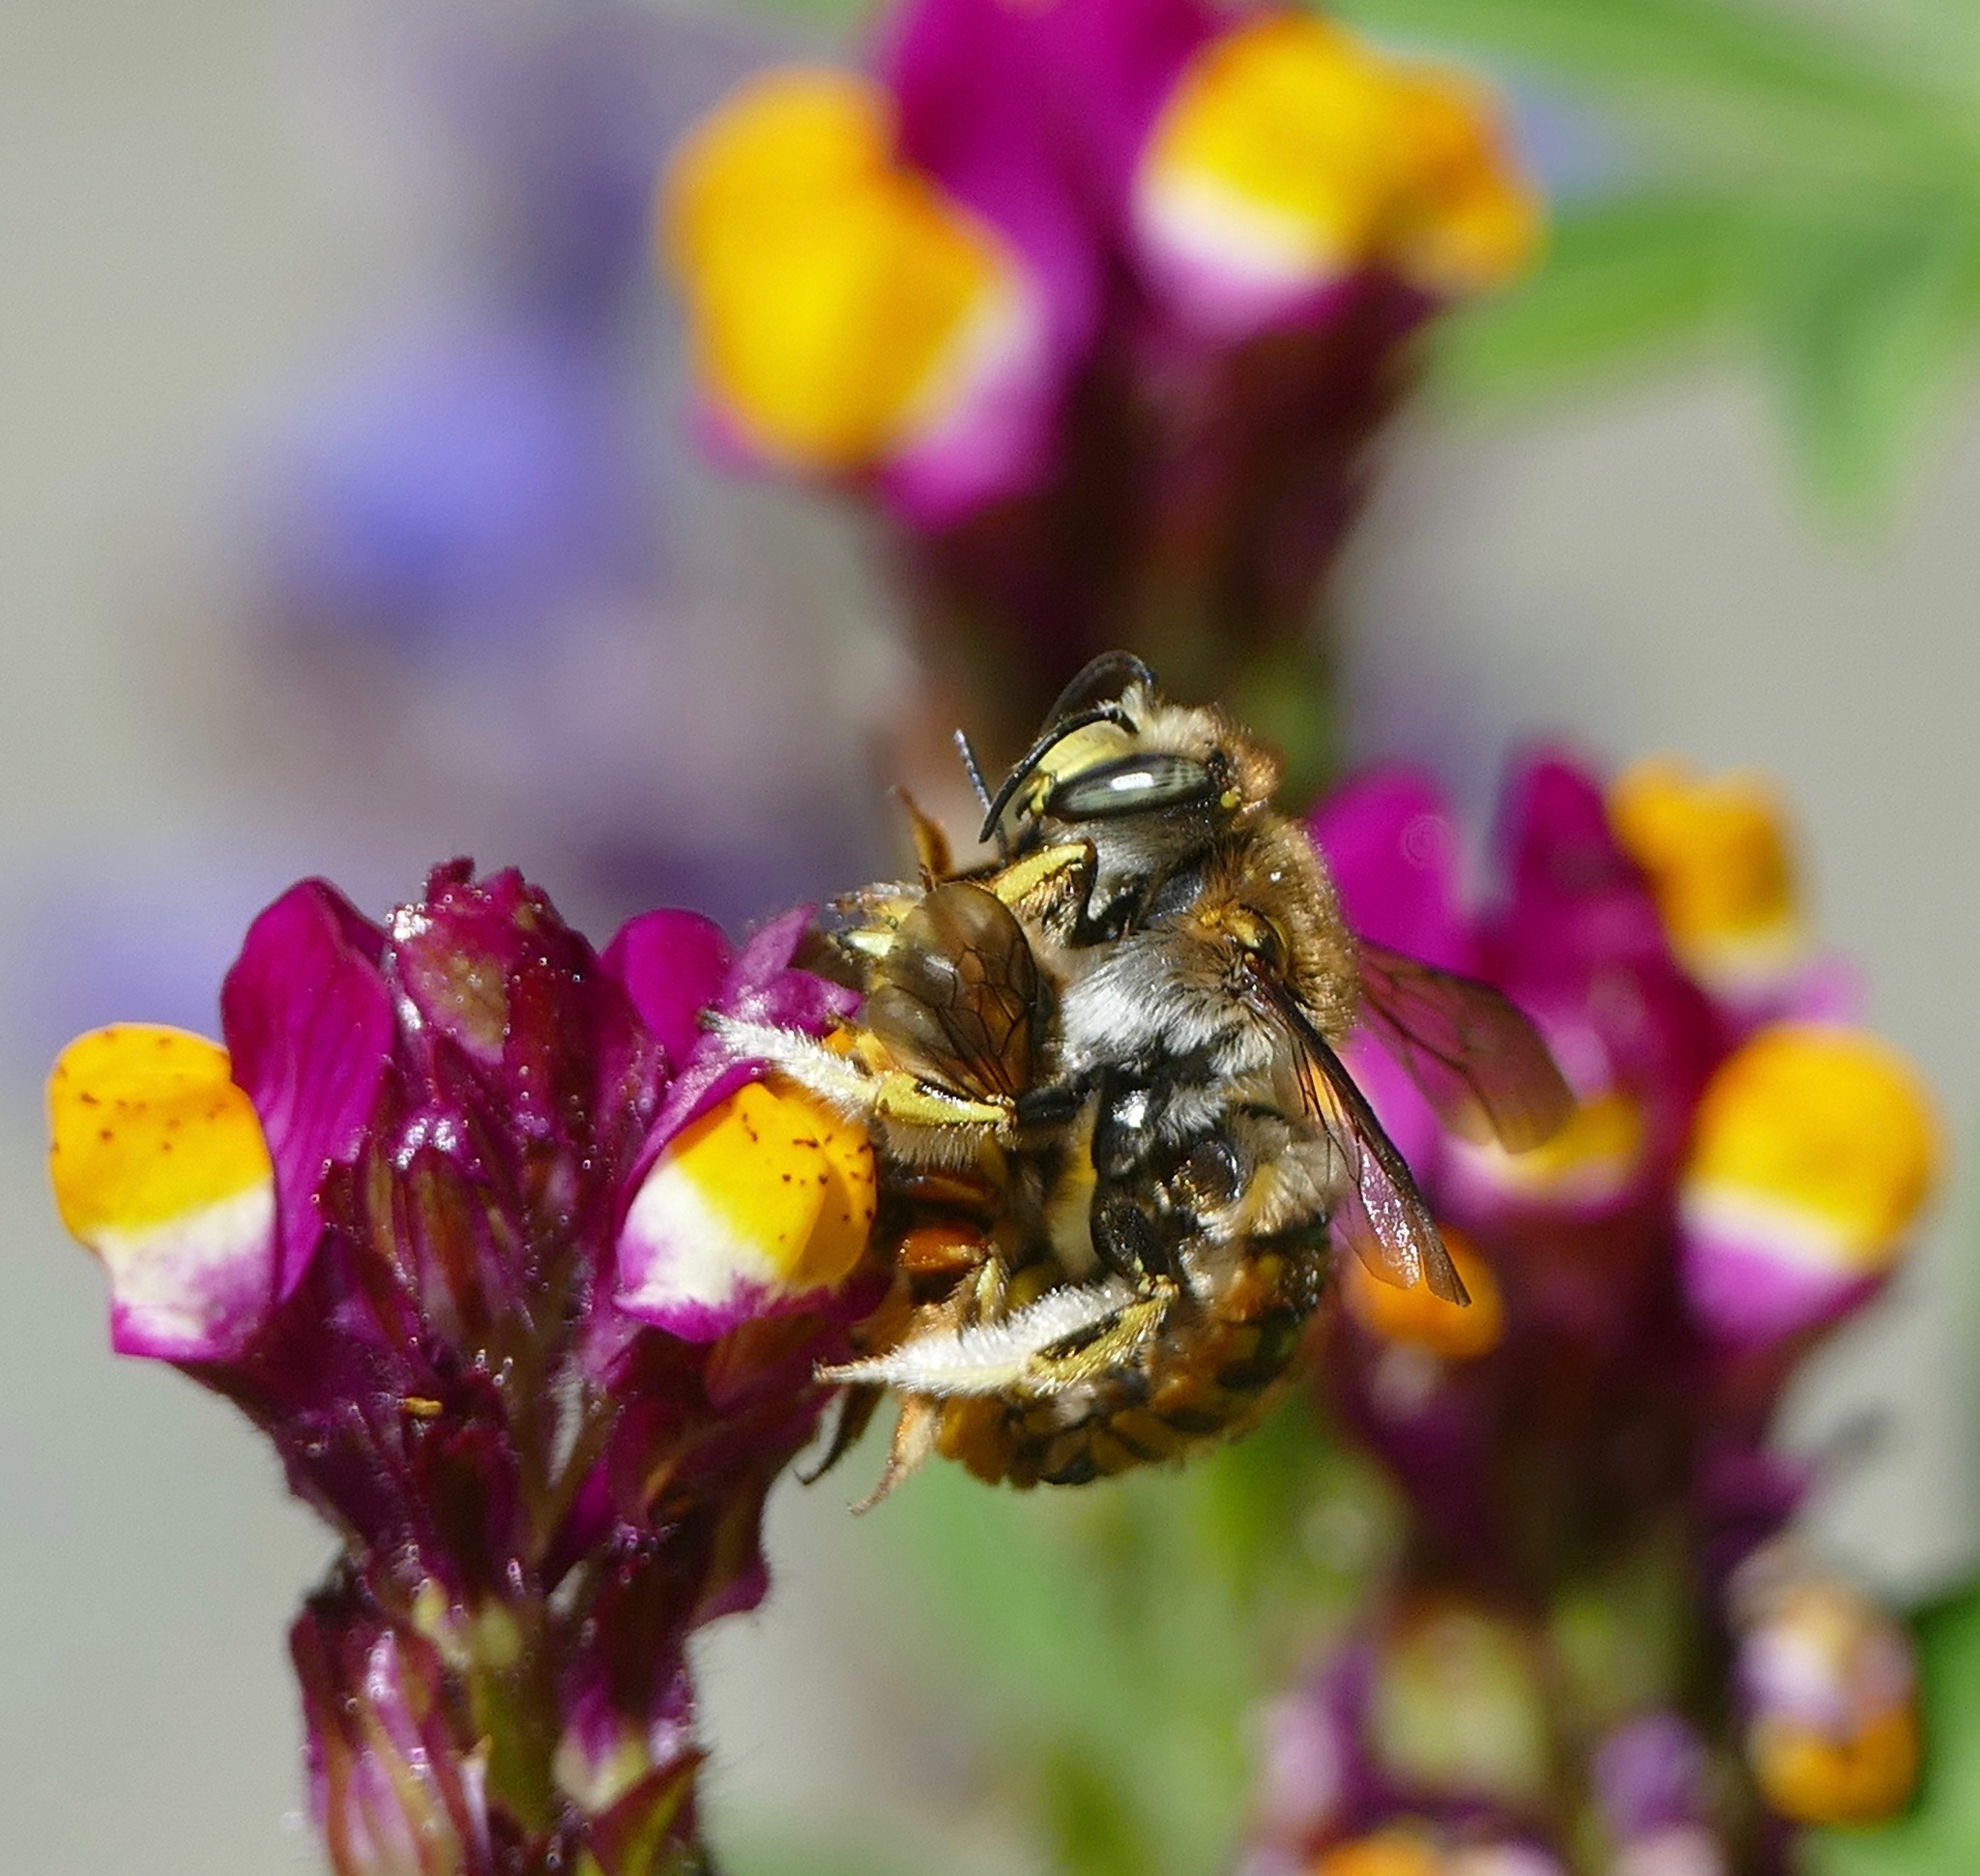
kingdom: Animalia
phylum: Arthropoda
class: Insecta
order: Hymenoptera
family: Megachilidae
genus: Anthidium
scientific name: Anthidium manicatum
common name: Wool carder bee
